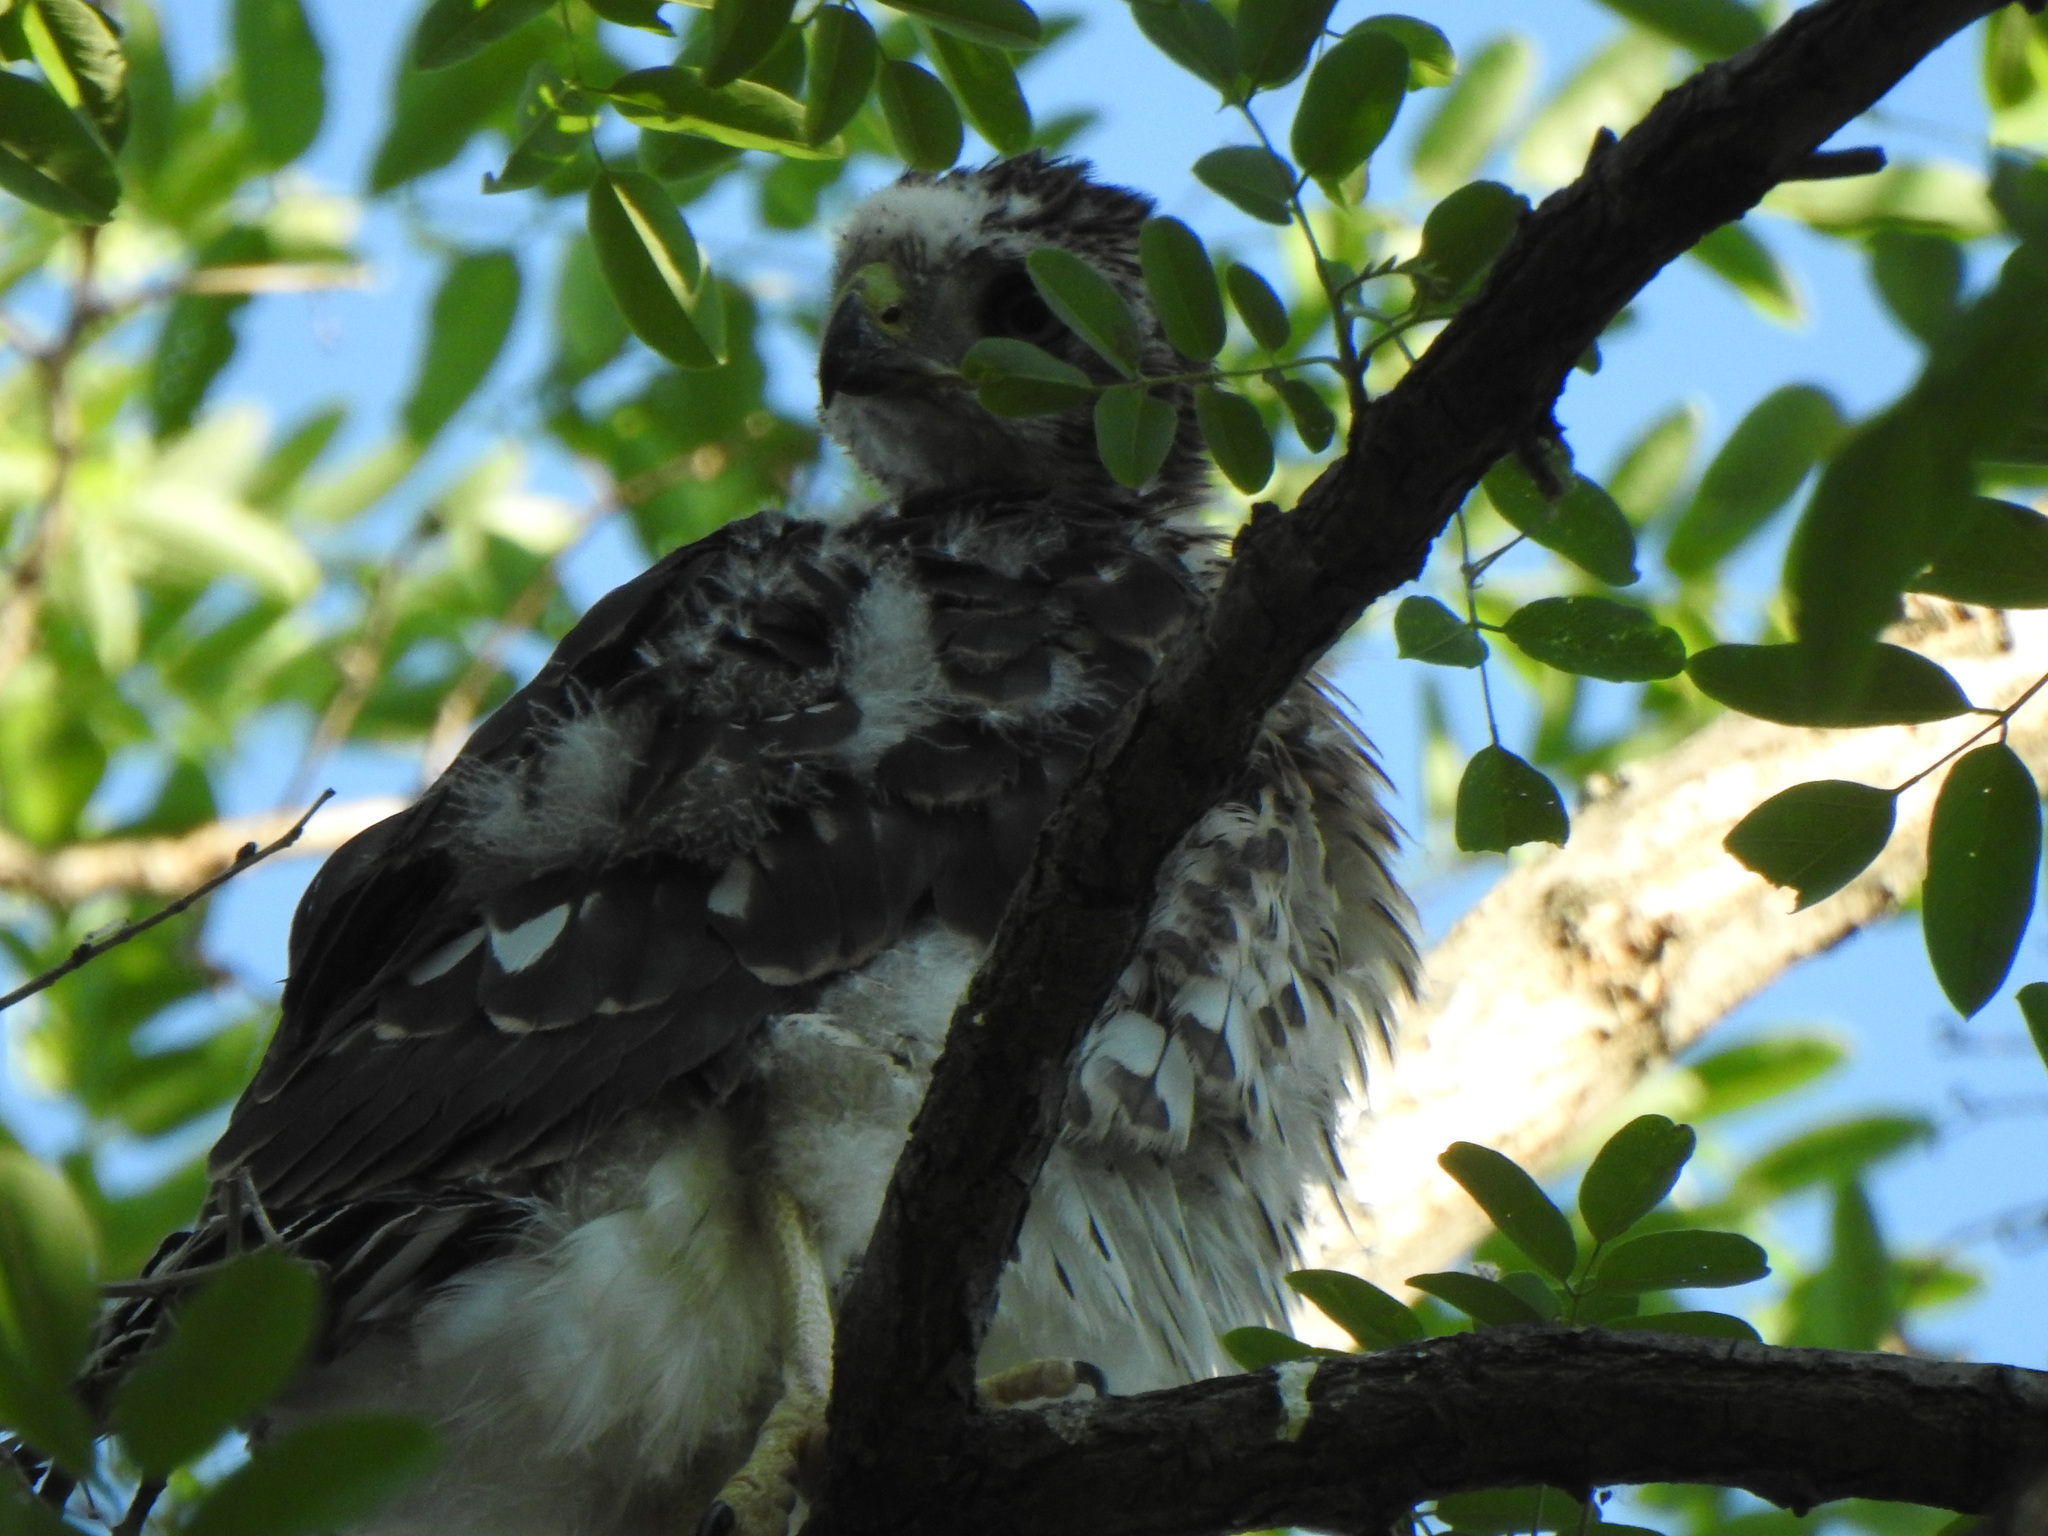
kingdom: Animalia
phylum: Chordata
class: Aves
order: Accipitriformes
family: Accipitridae
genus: Accipiter
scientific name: Accipiter cooperii
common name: Cooper's hawk
